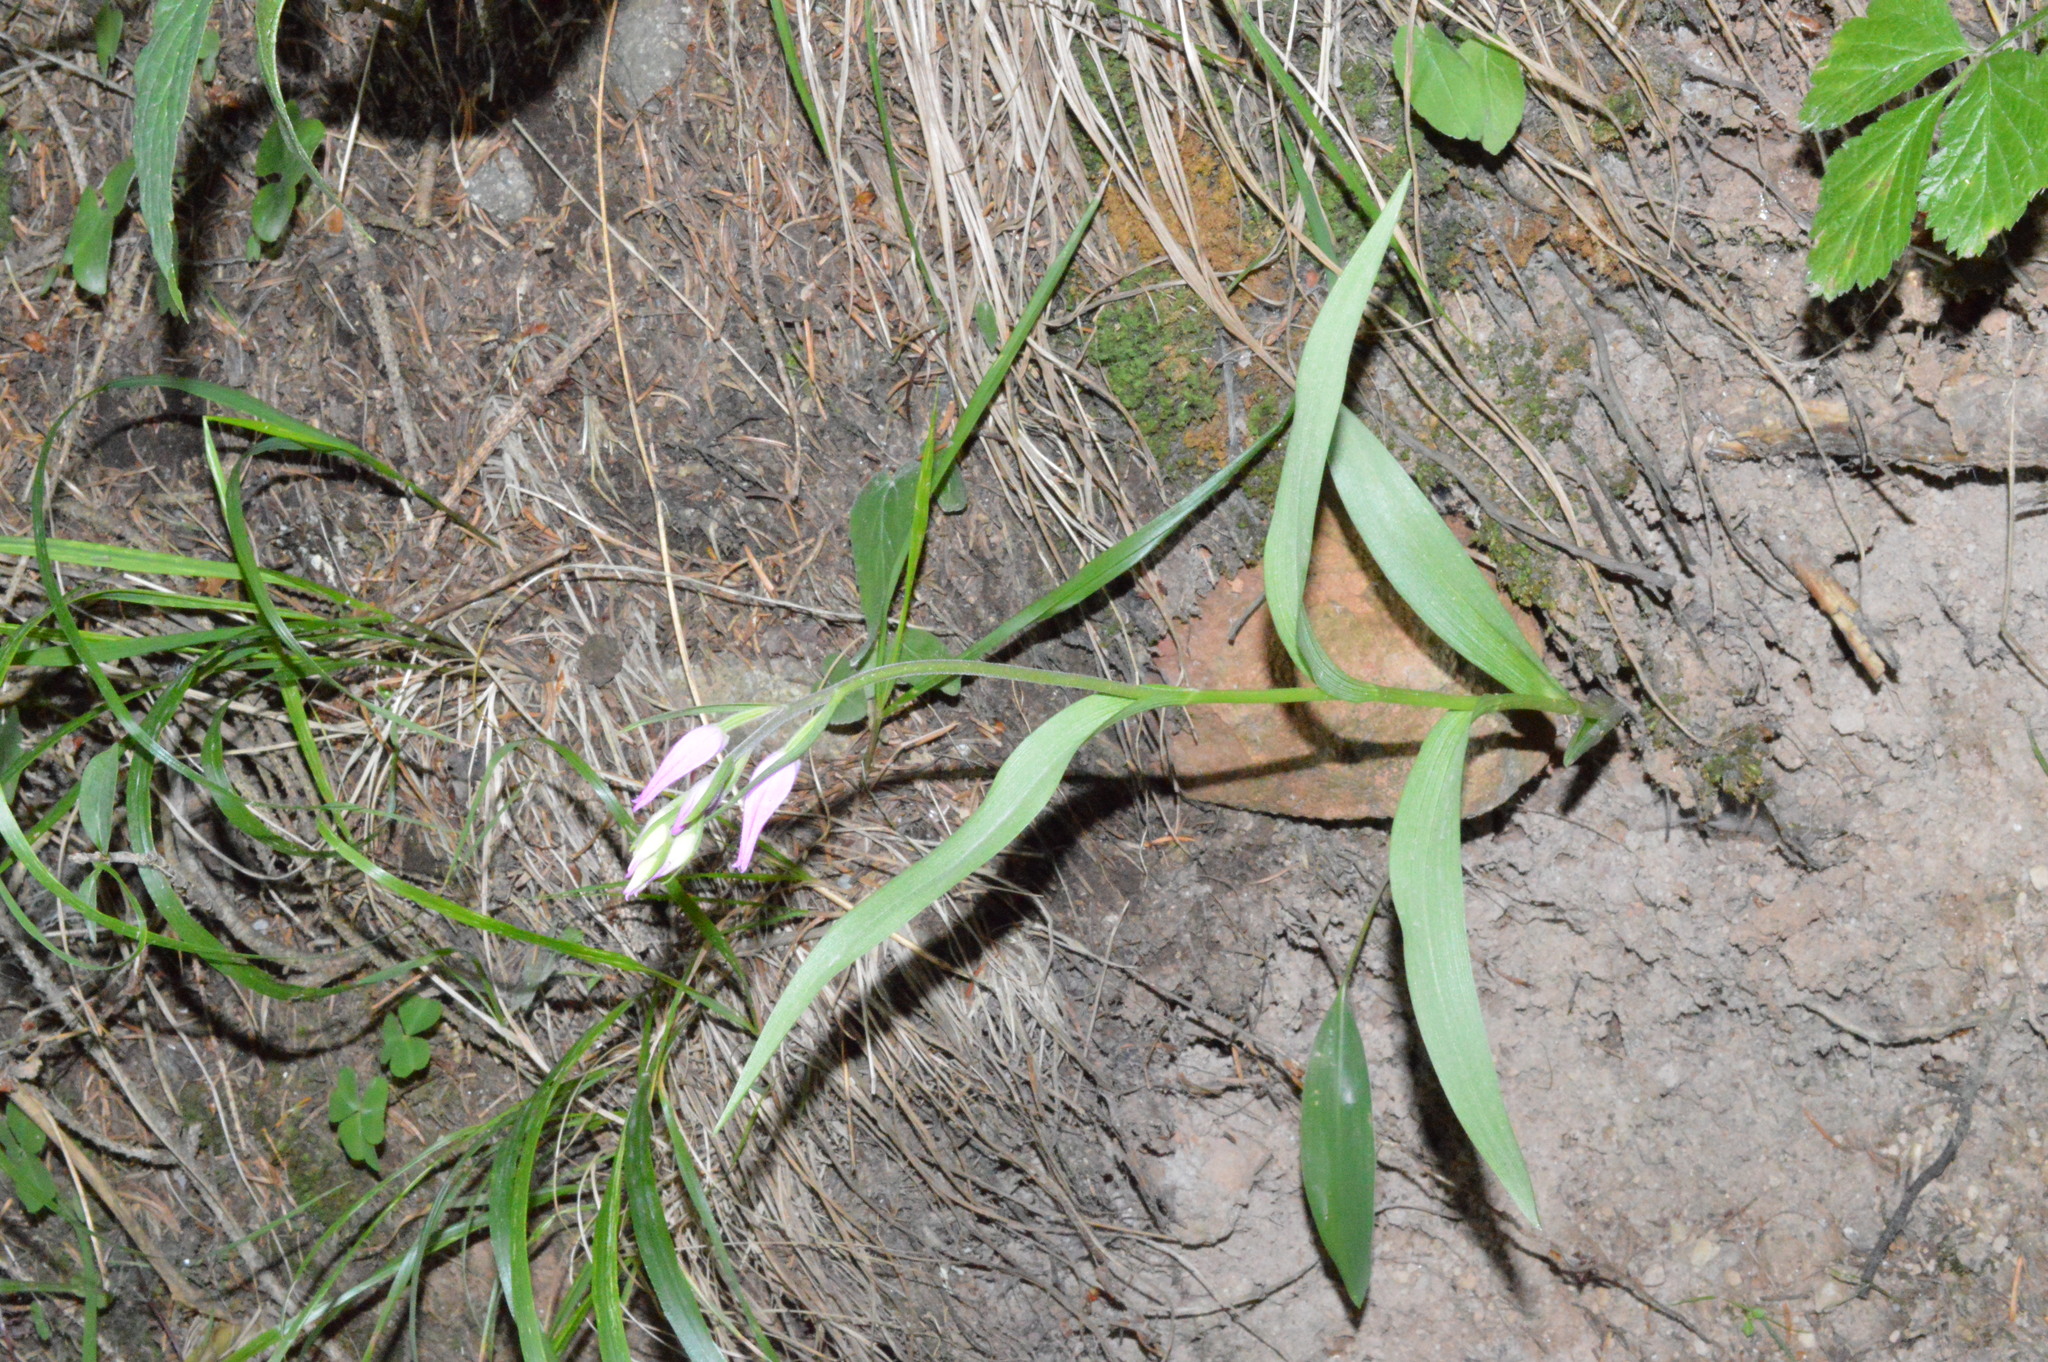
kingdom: Plantae
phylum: Tracheophyta
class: Liliopsida
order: Asparagales
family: Orchidaceae
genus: Cephalanthera
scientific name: Cephalanthera rubra
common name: Red helleborine
